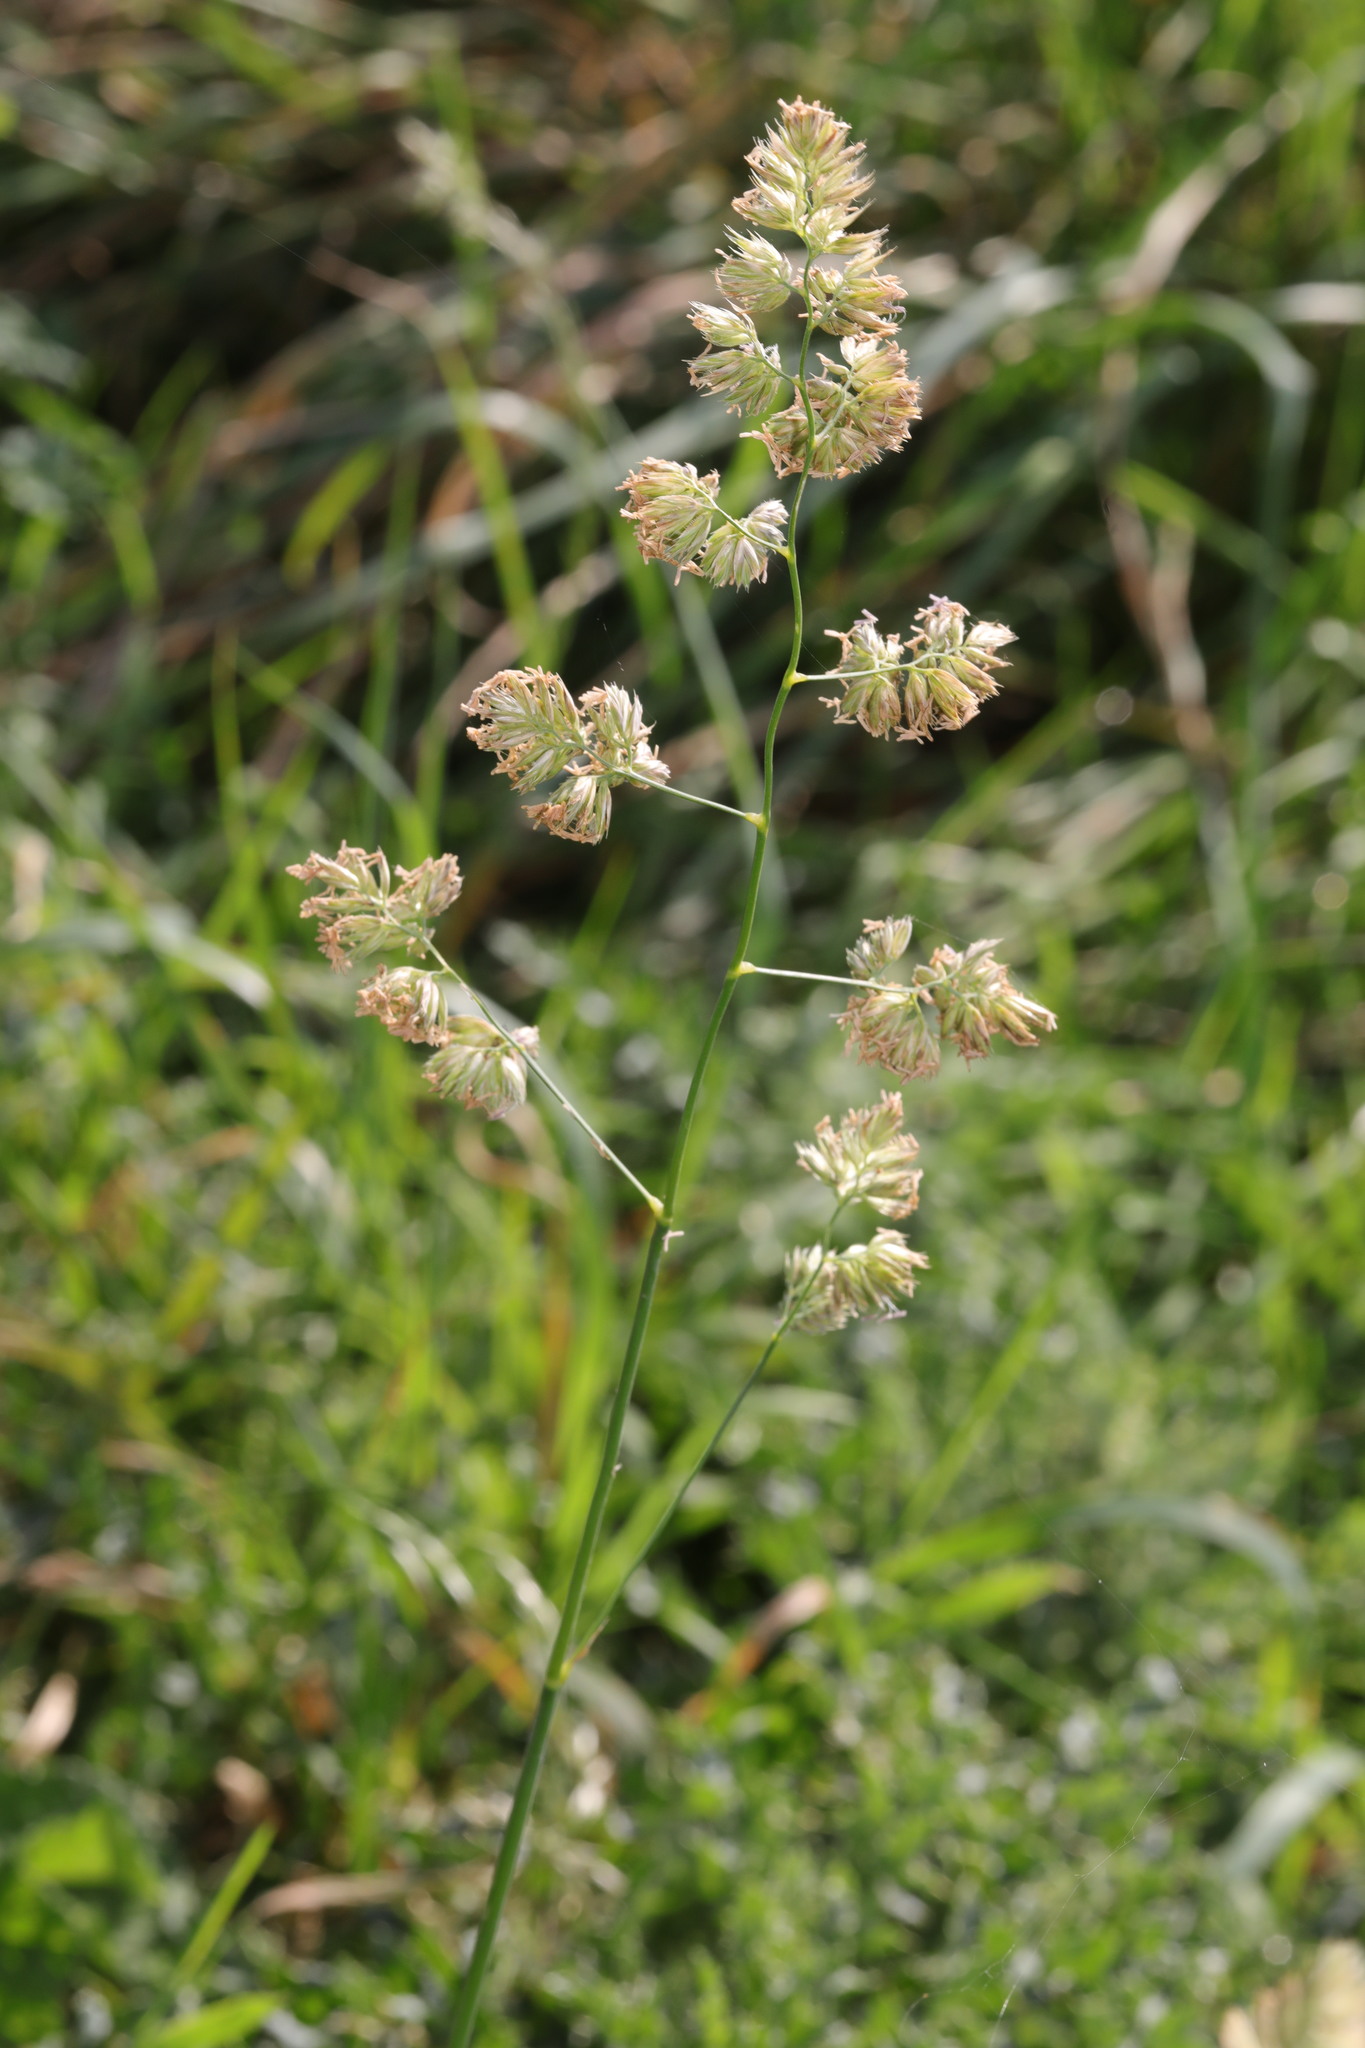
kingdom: Plantae
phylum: Tracheophyta
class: Liliopsida
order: Poales
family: Poaceae
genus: Dactylis
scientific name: Dactylis glomerata
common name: Orchardgrass
